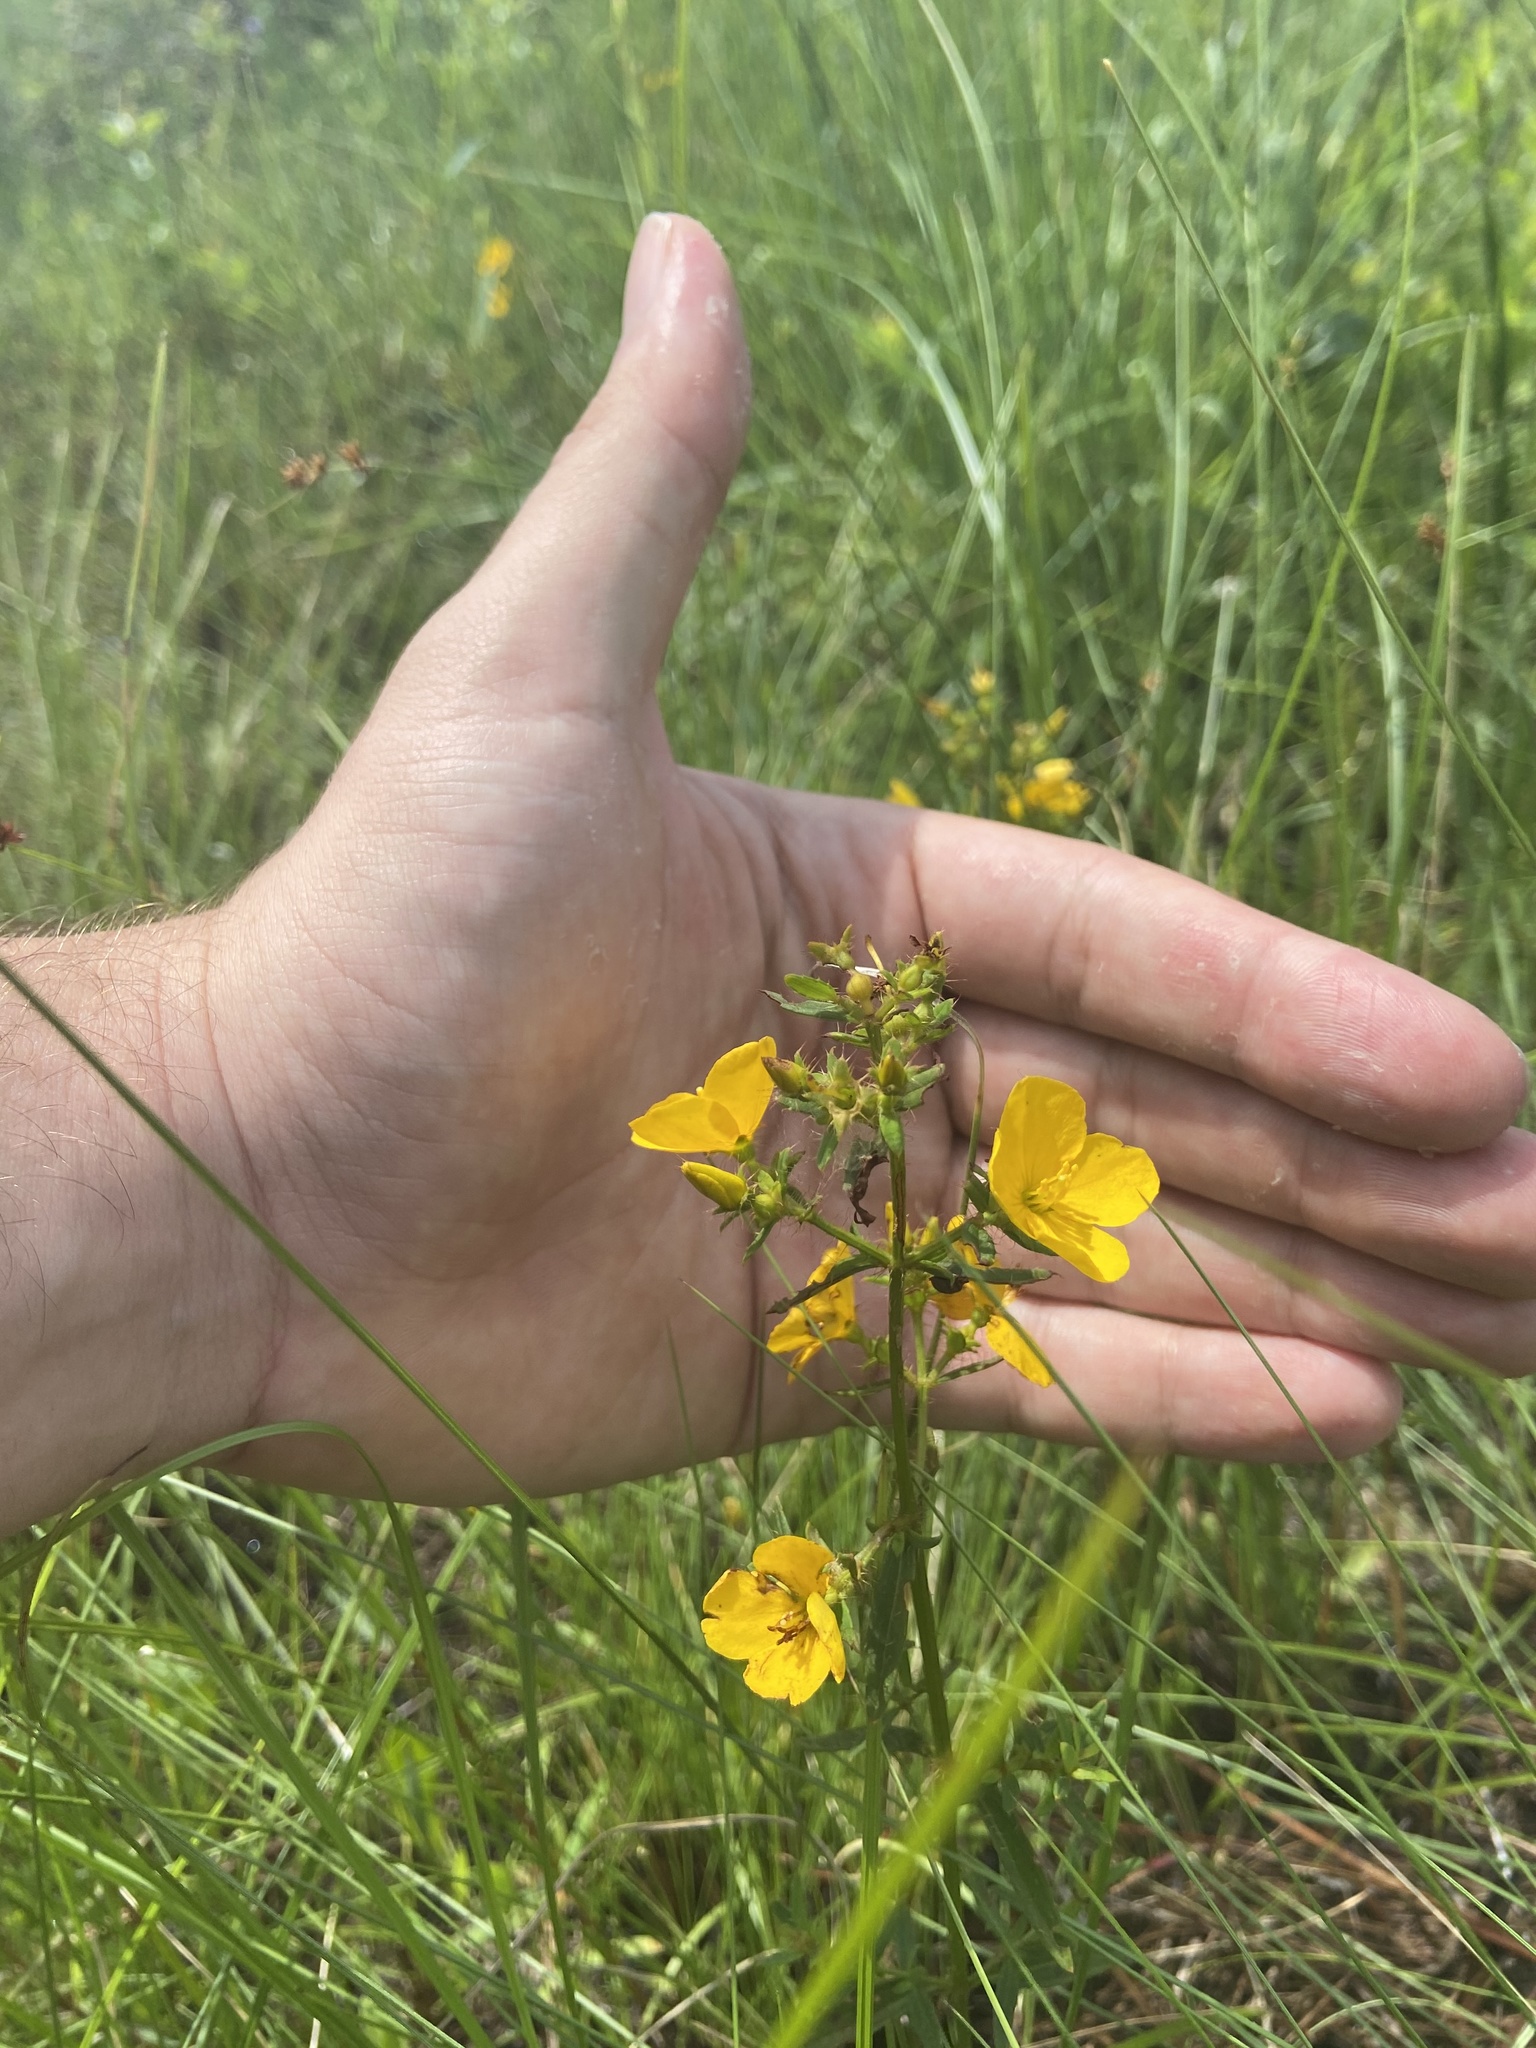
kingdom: Plantae
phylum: Tracheophyta
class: Magnoliopsida
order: Myrtales
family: Melastomataceae
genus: Rhexia
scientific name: Rhexia lutea
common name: Golden meadow-beauty
